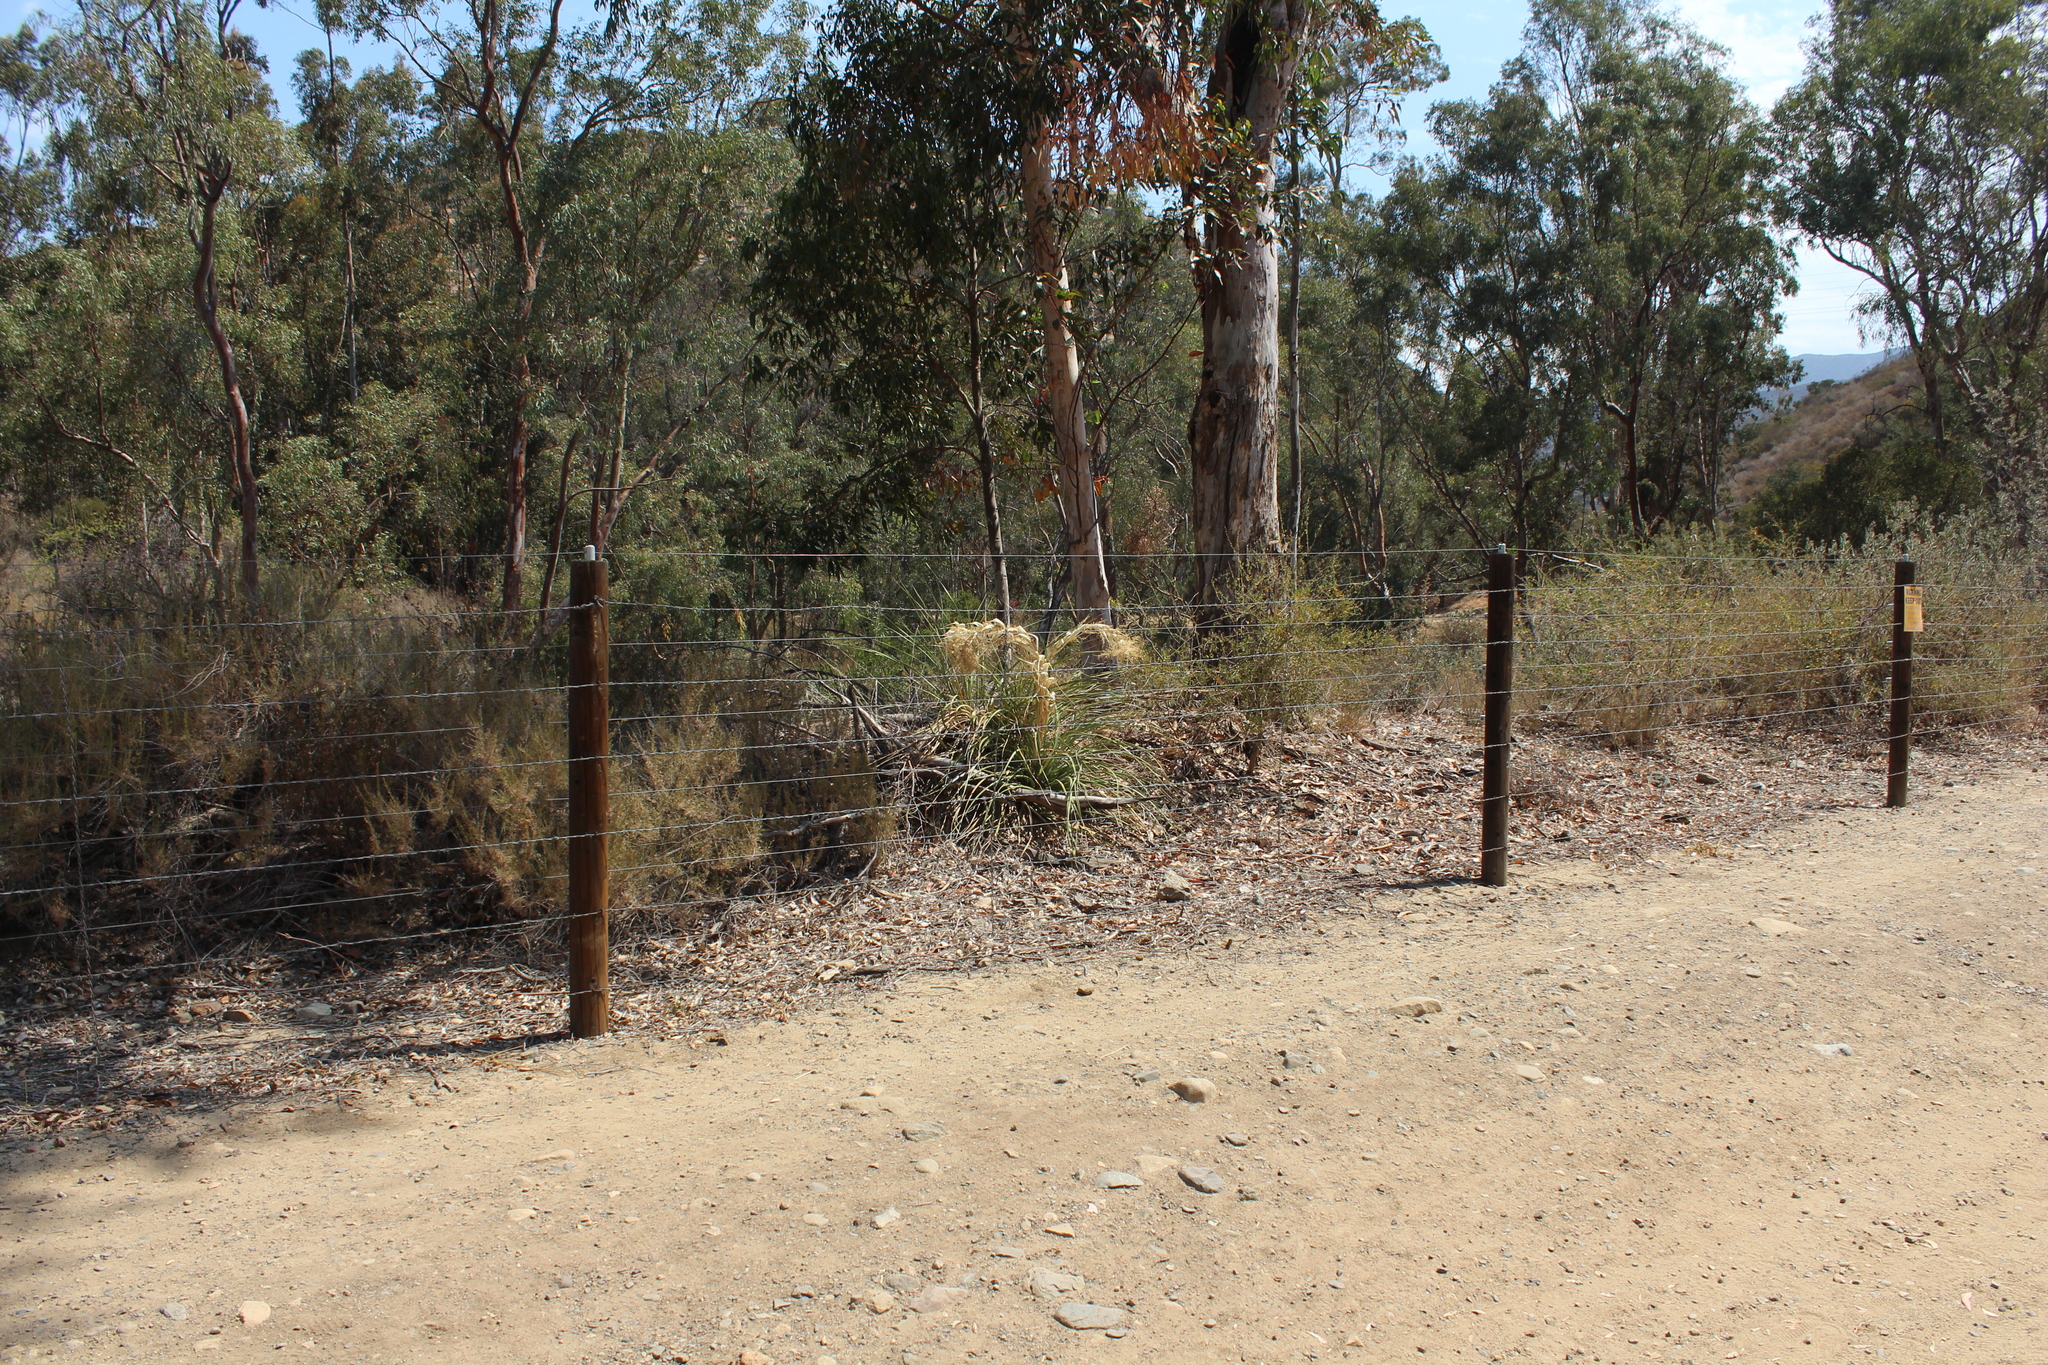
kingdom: Plantae
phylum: Tracheophyta
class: Liliopsida
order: Asparagales
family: Asparagaceae
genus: Nolina
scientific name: Nolina cismontana
